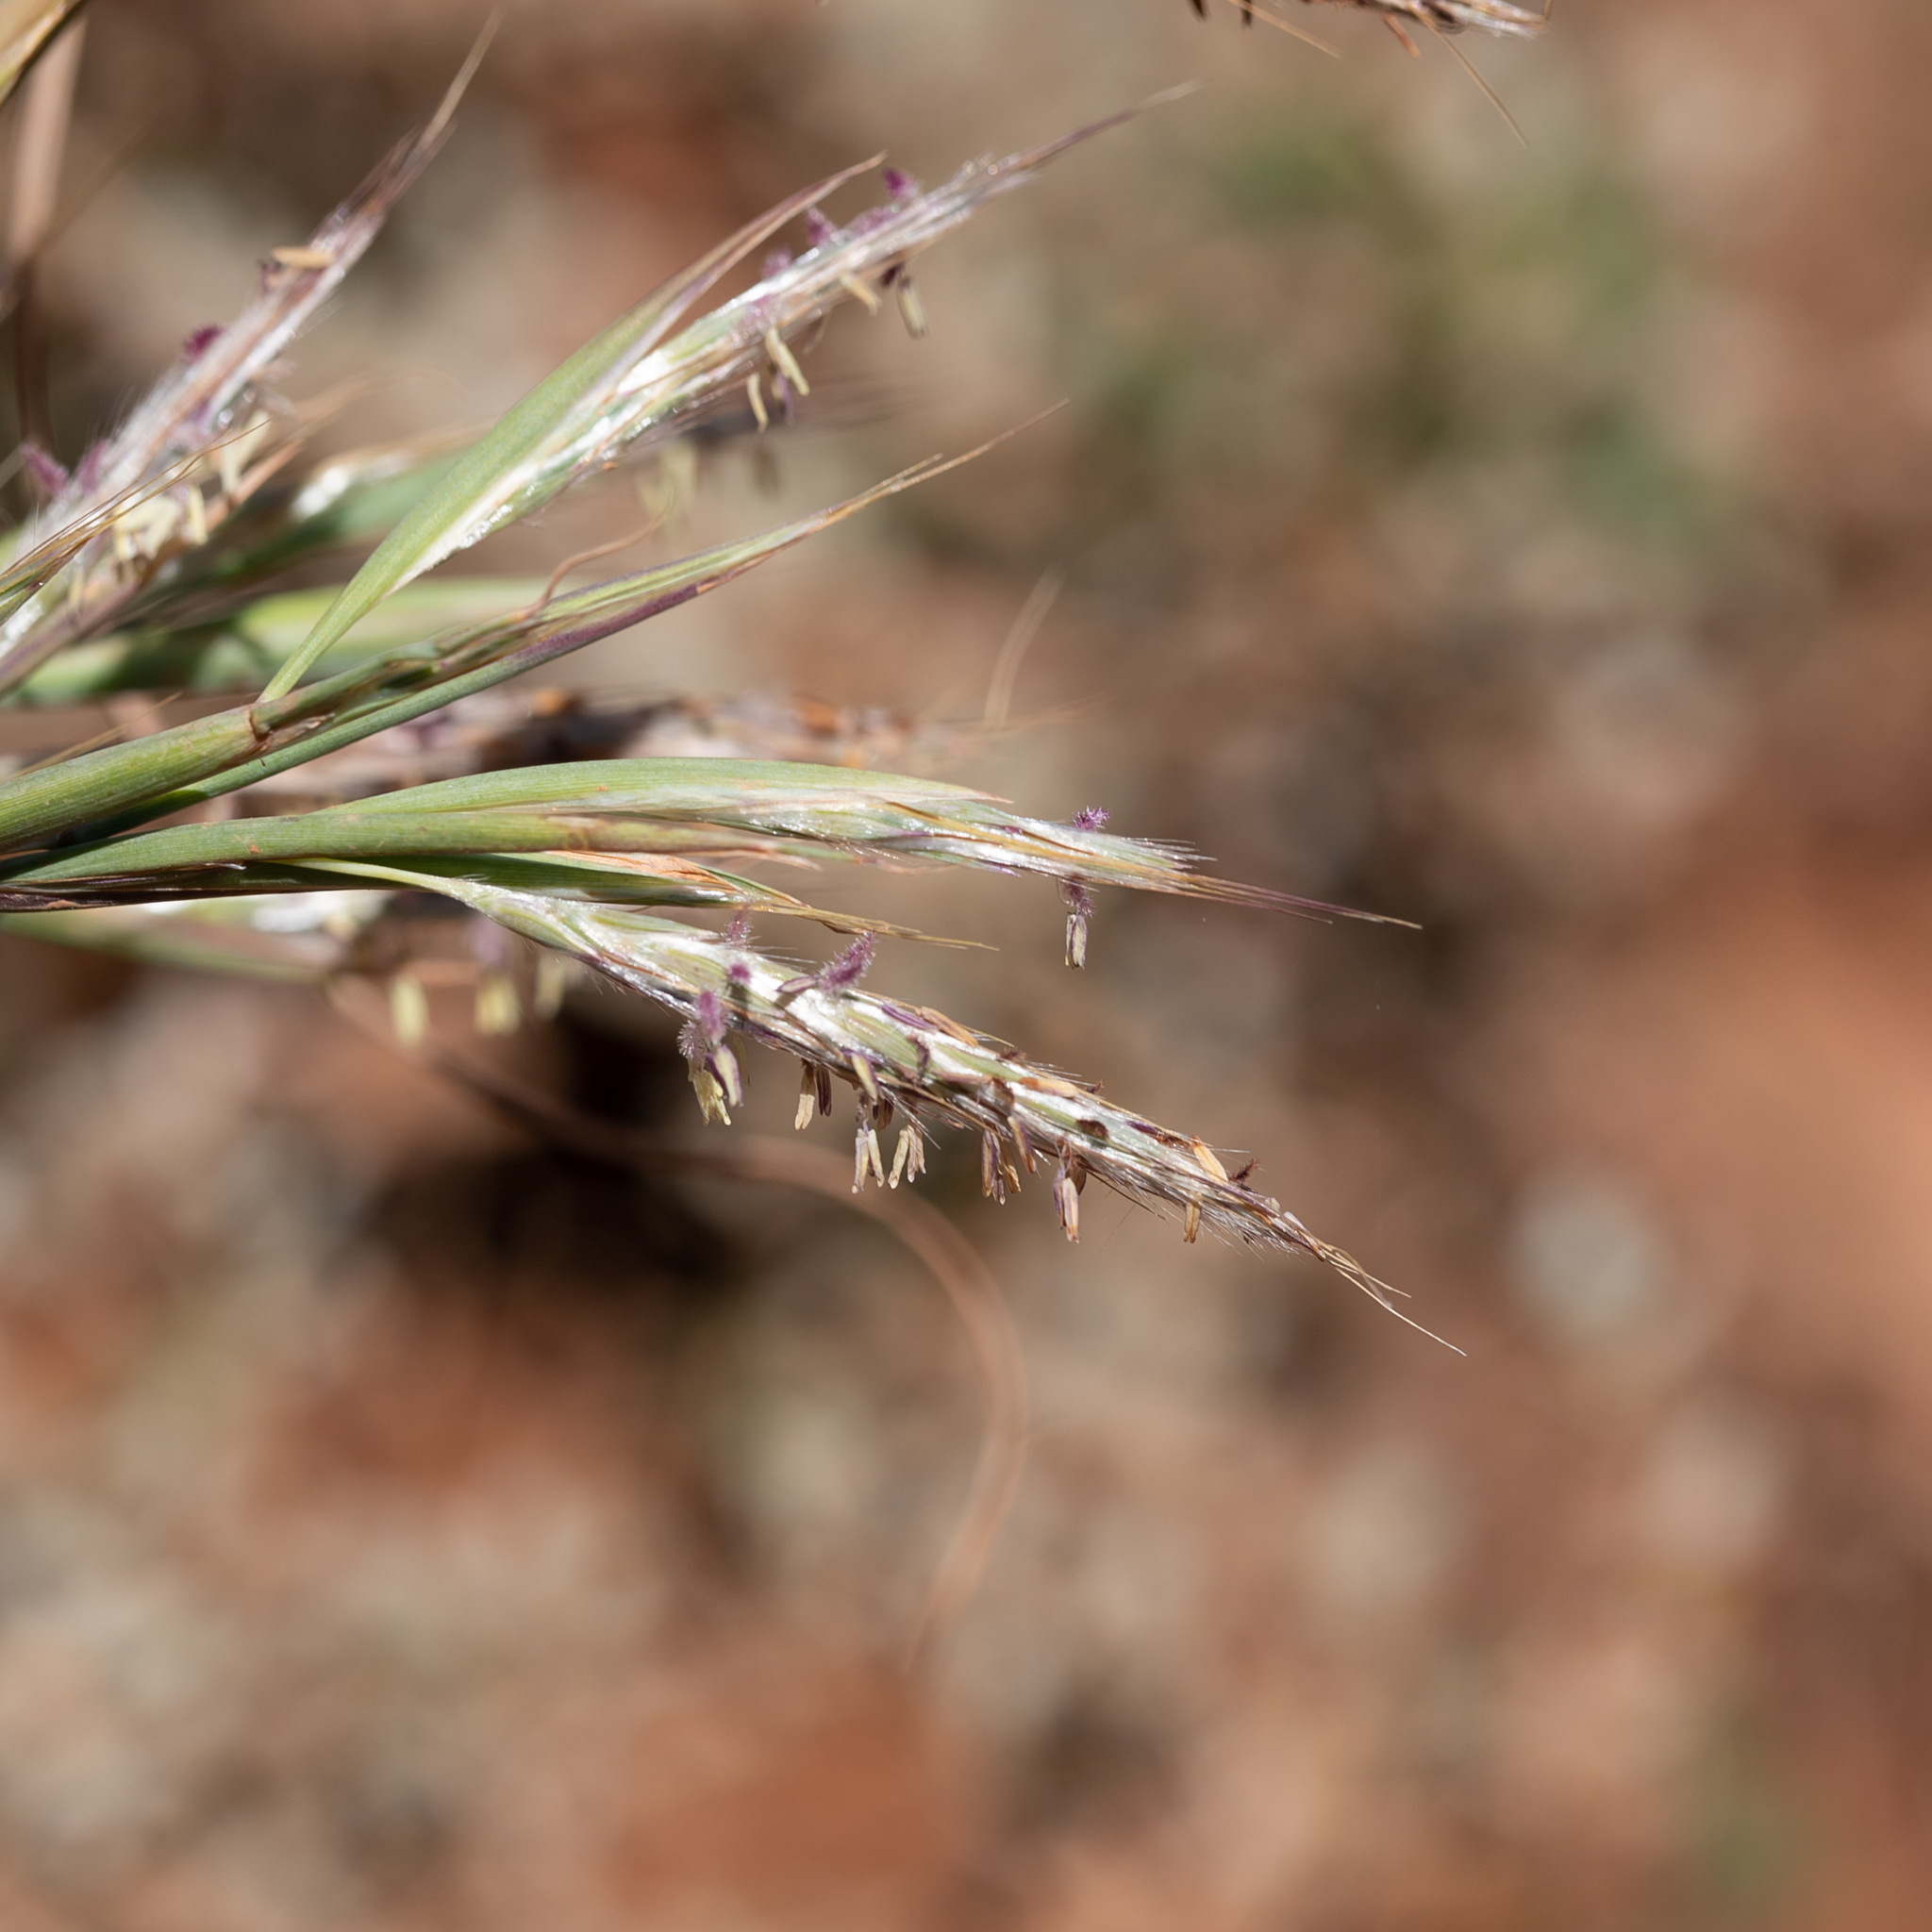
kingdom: Plantae
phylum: Tracheophyta
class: Liliopsida
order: Poales
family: Poaceae
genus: Cymbopogon
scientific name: Cymbopogon ambiguus
